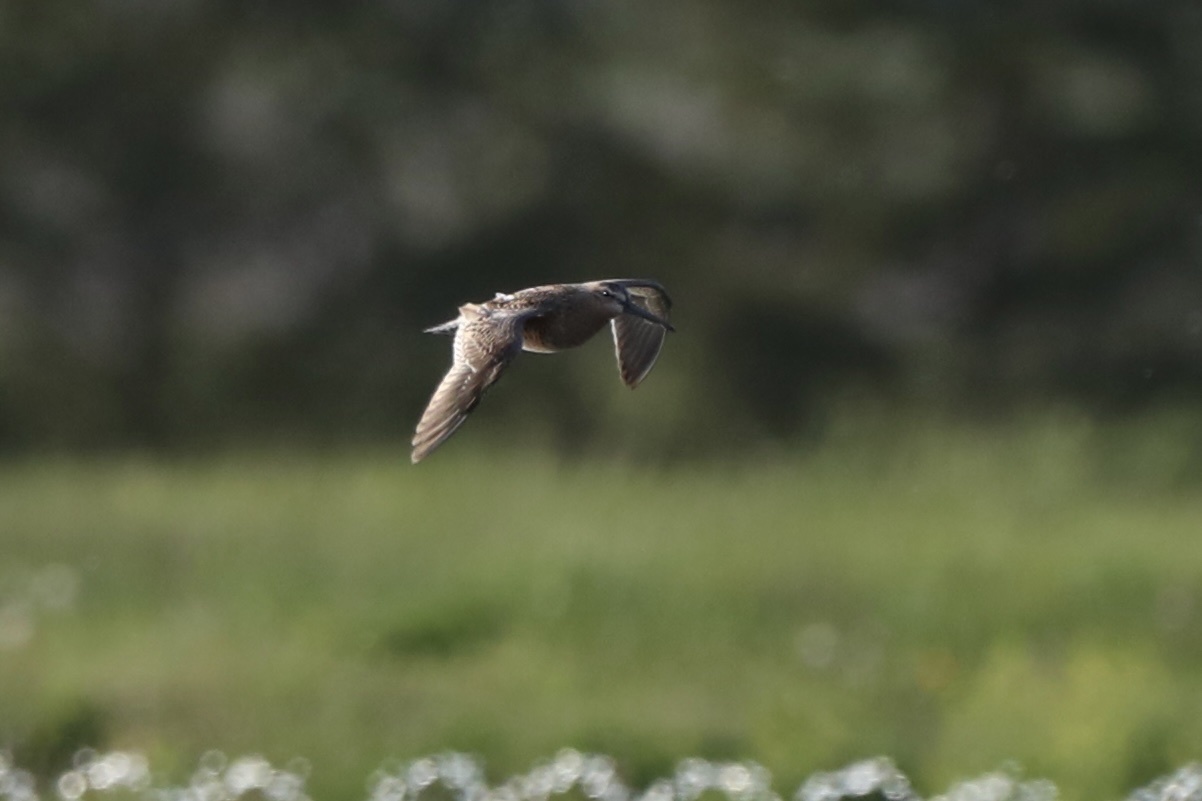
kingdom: Animalia
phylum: Chordata
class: Aves
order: Charadriiformes
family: Scolopacidae
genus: Limnodromus
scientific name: Limnodromus griseus
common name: Short-billed dowitcher
